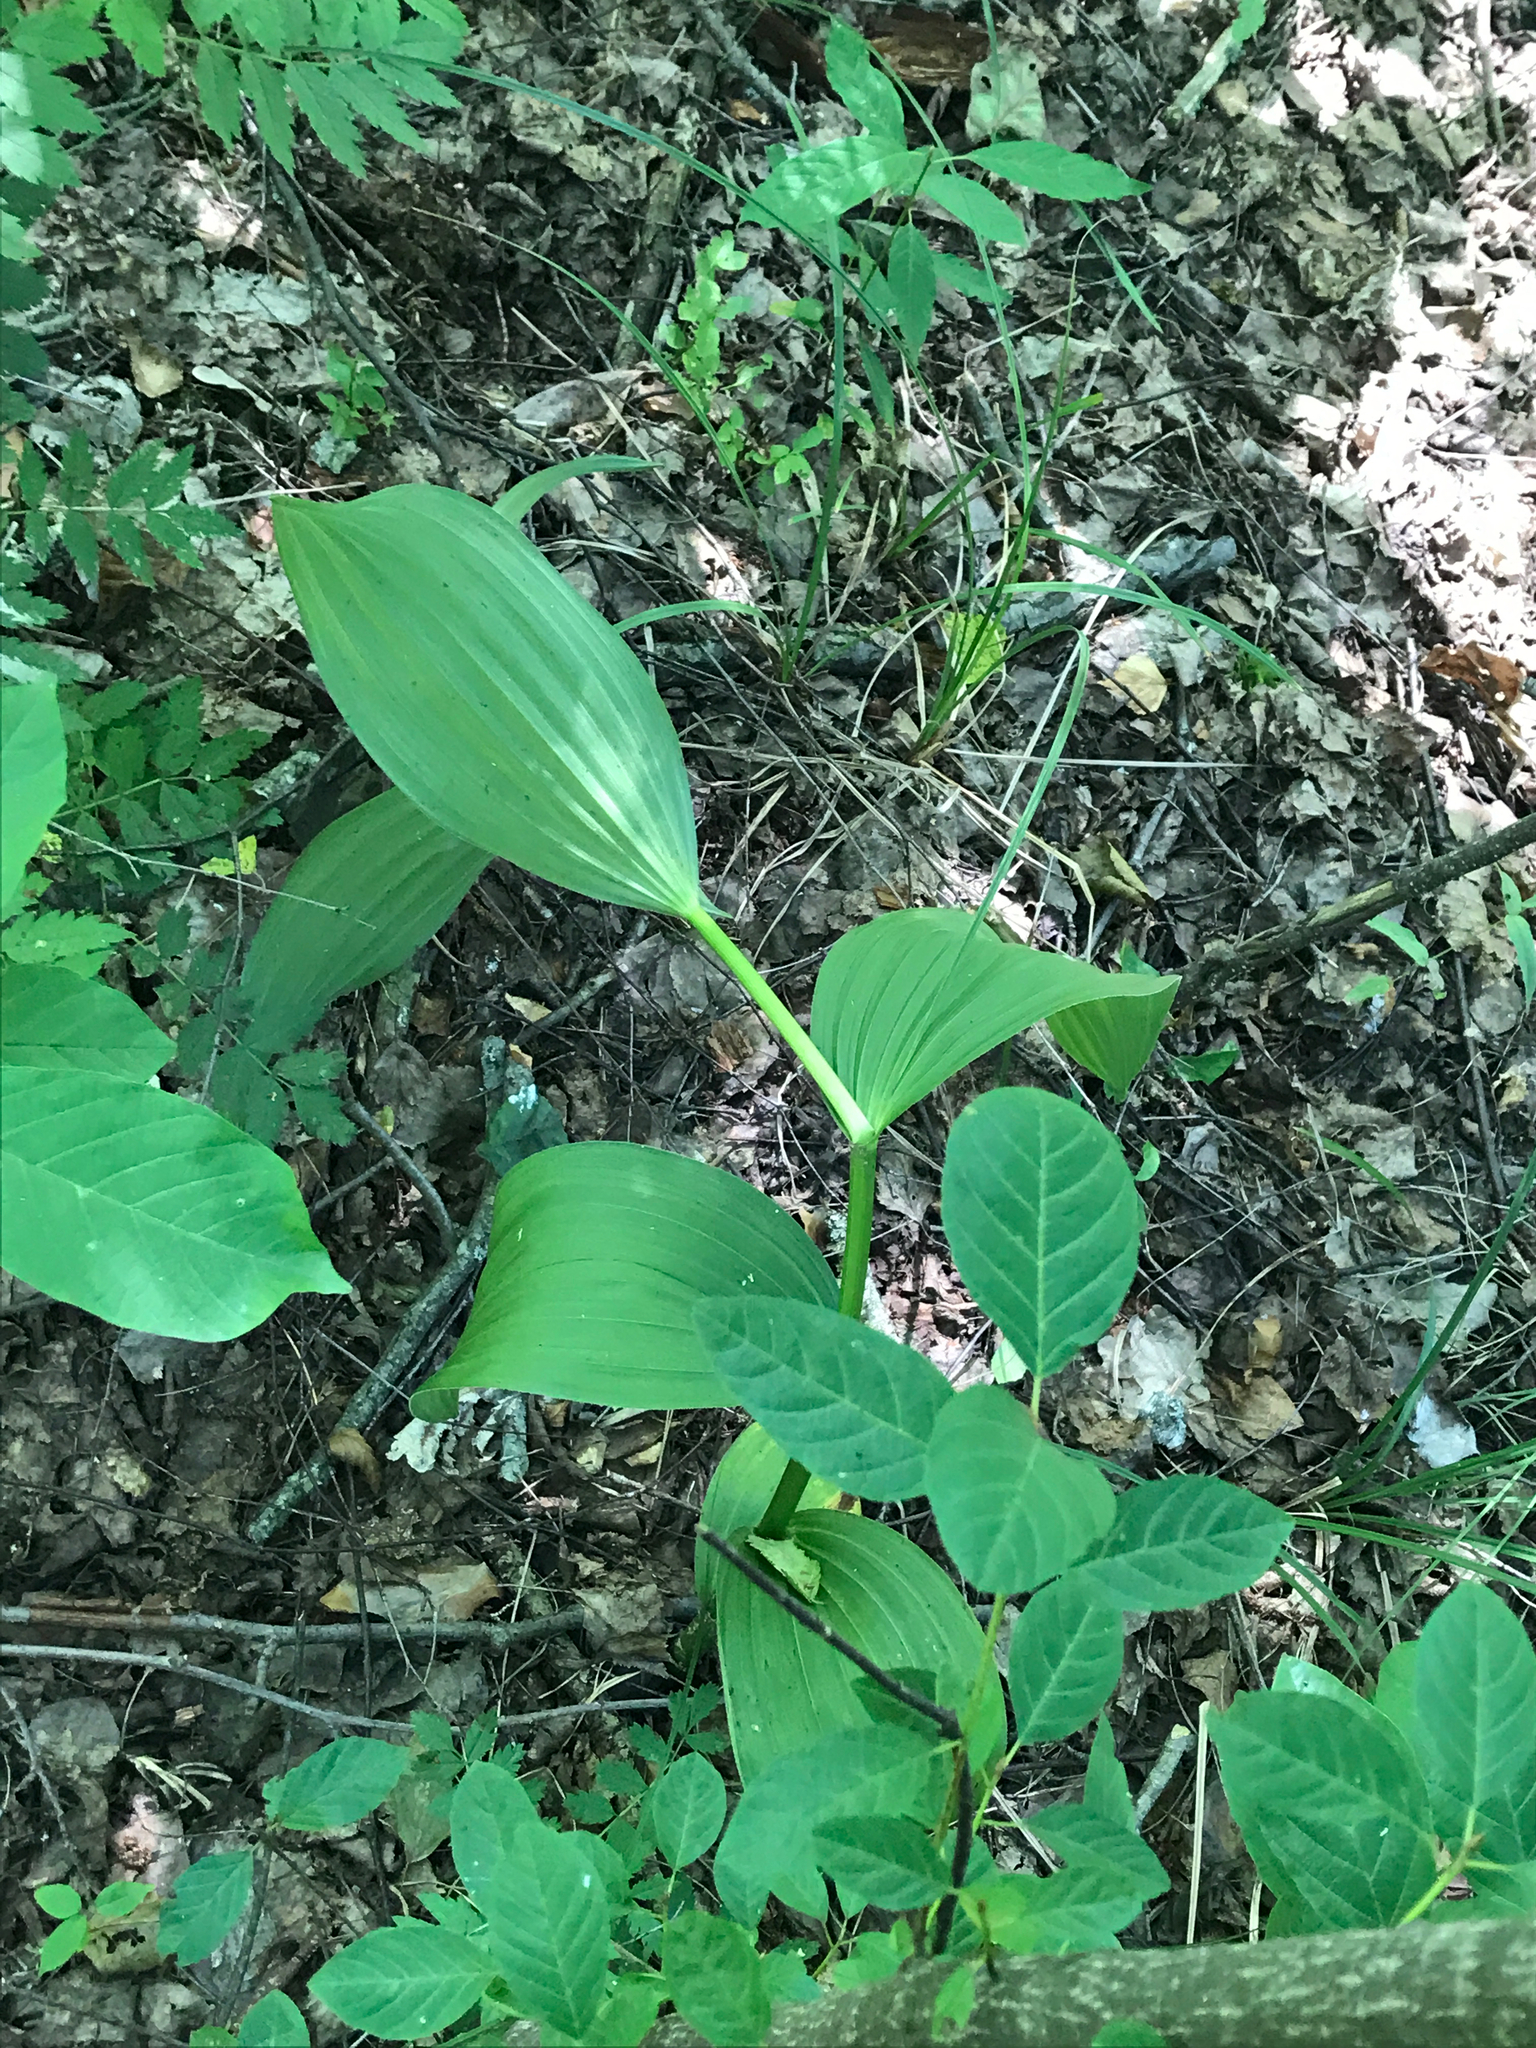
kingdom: Plantae
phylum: Tracheophyta
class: Liliopsida
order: Liliales
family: Melanthiaceae
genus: Veratrum
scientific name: Veratrum lobelianum
